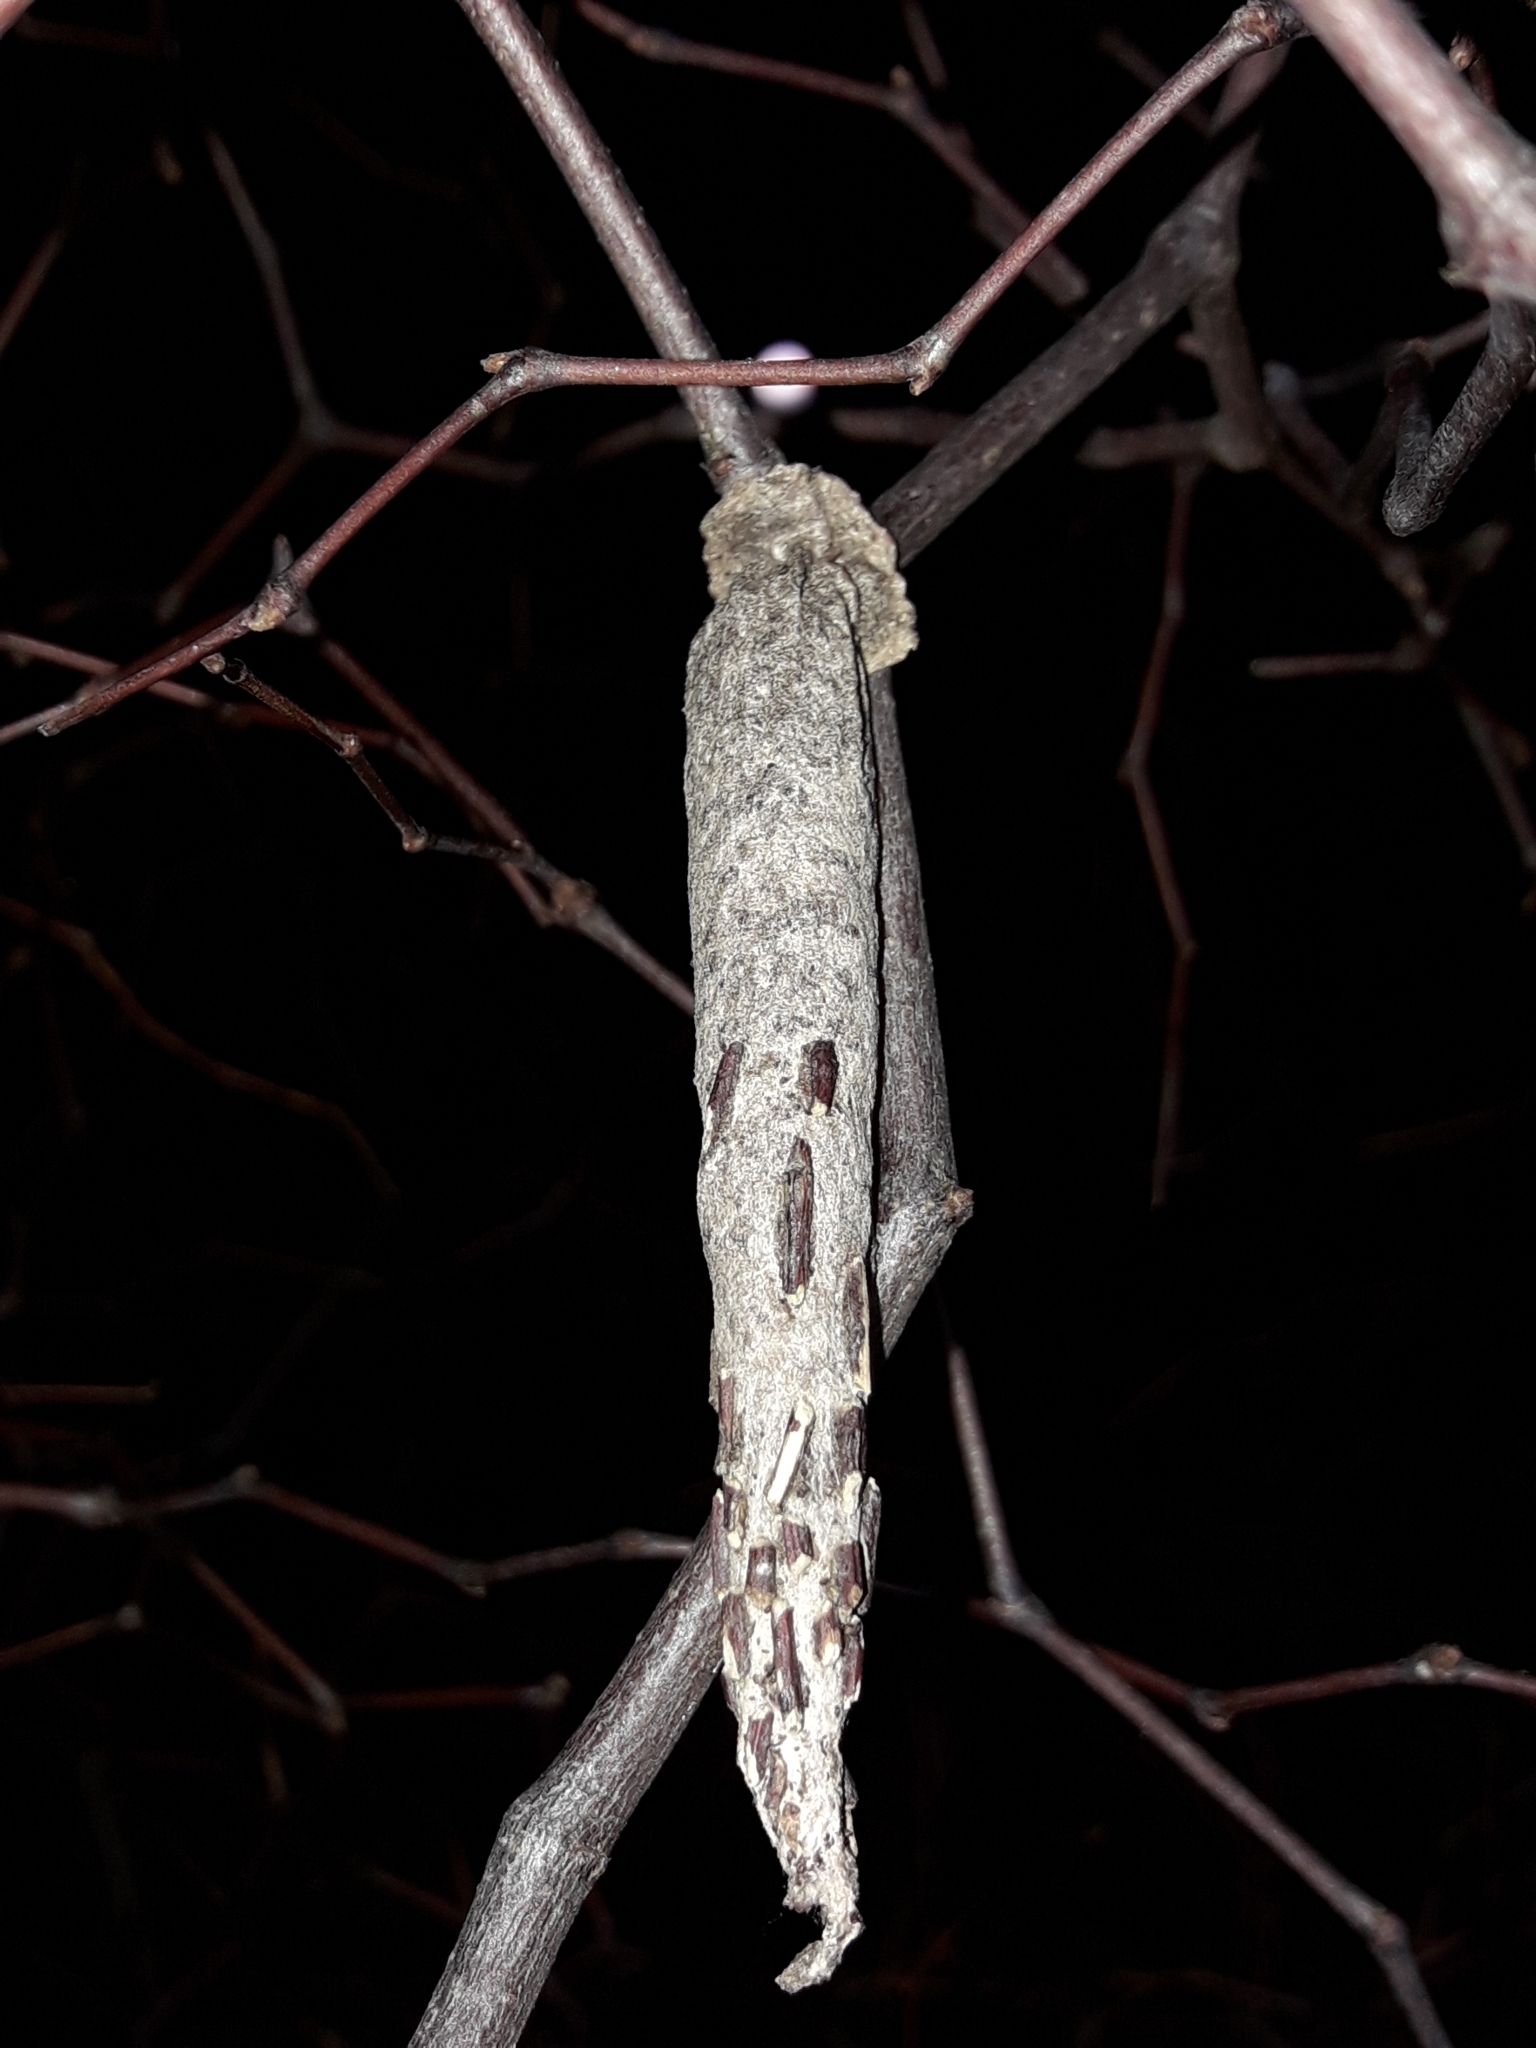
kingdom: Animalia
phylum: Arthropoda
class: Insecta
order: Lepidoptera
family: Psychidae
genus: Liothula
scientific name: Liothula omnivora
